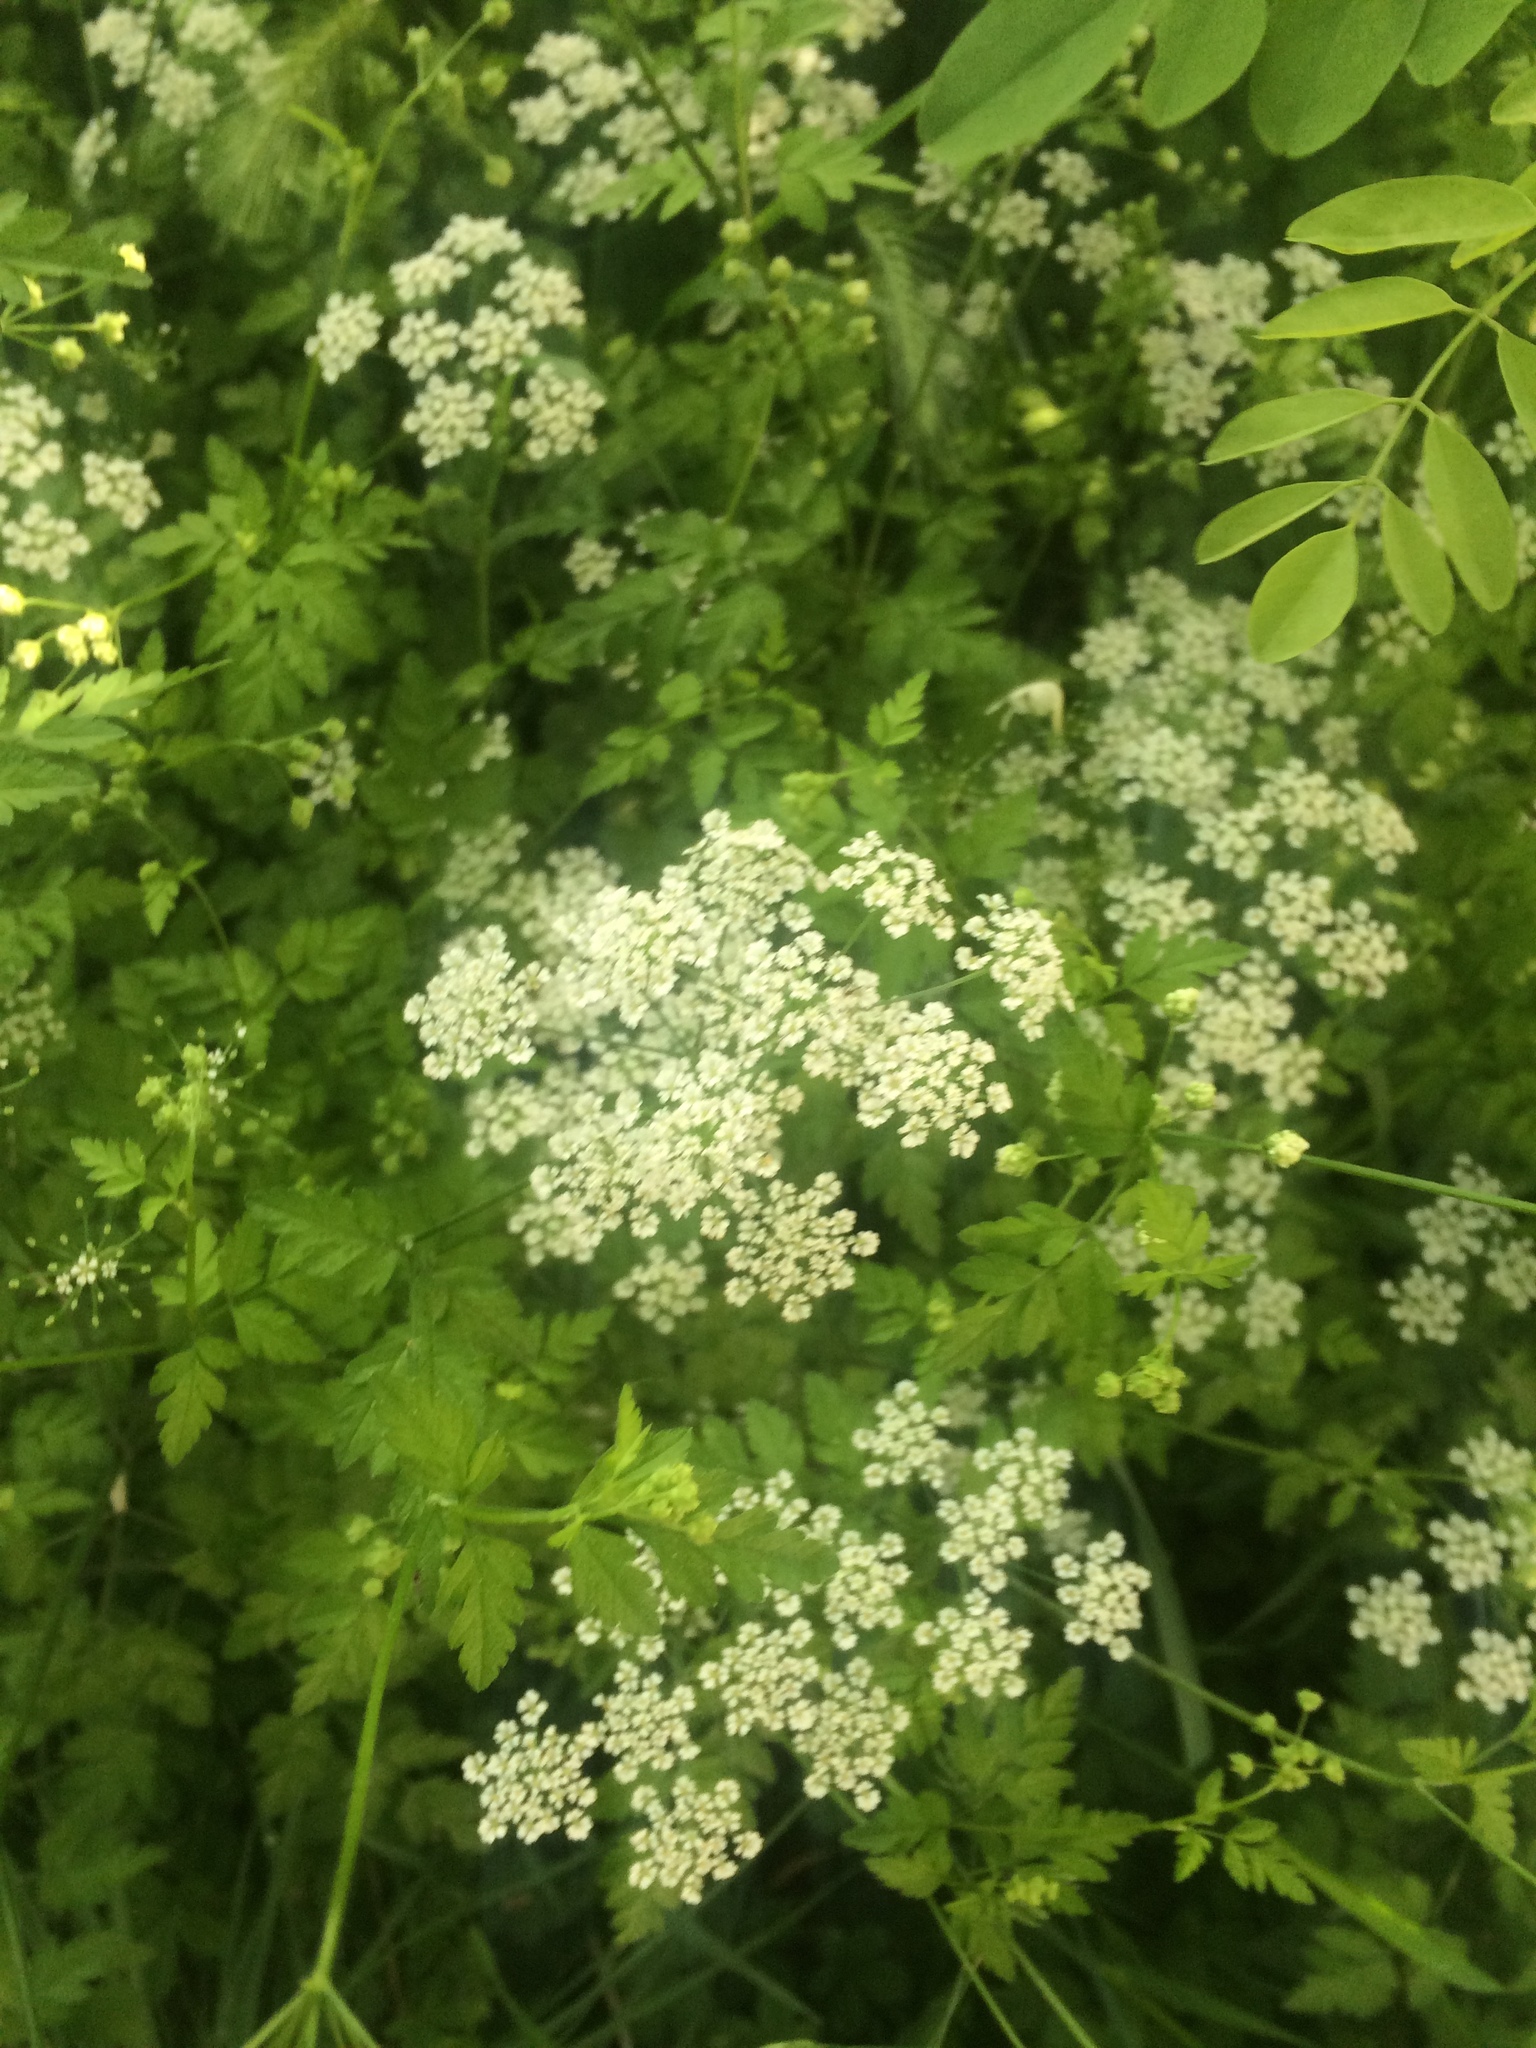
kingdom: Plantae
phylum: Tracheophyta
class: Magnoliopsida
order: Apiales
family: Apiaceae
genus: Chaerophyllum
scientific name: Chaerophyllum temulum
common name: Rough chervil
